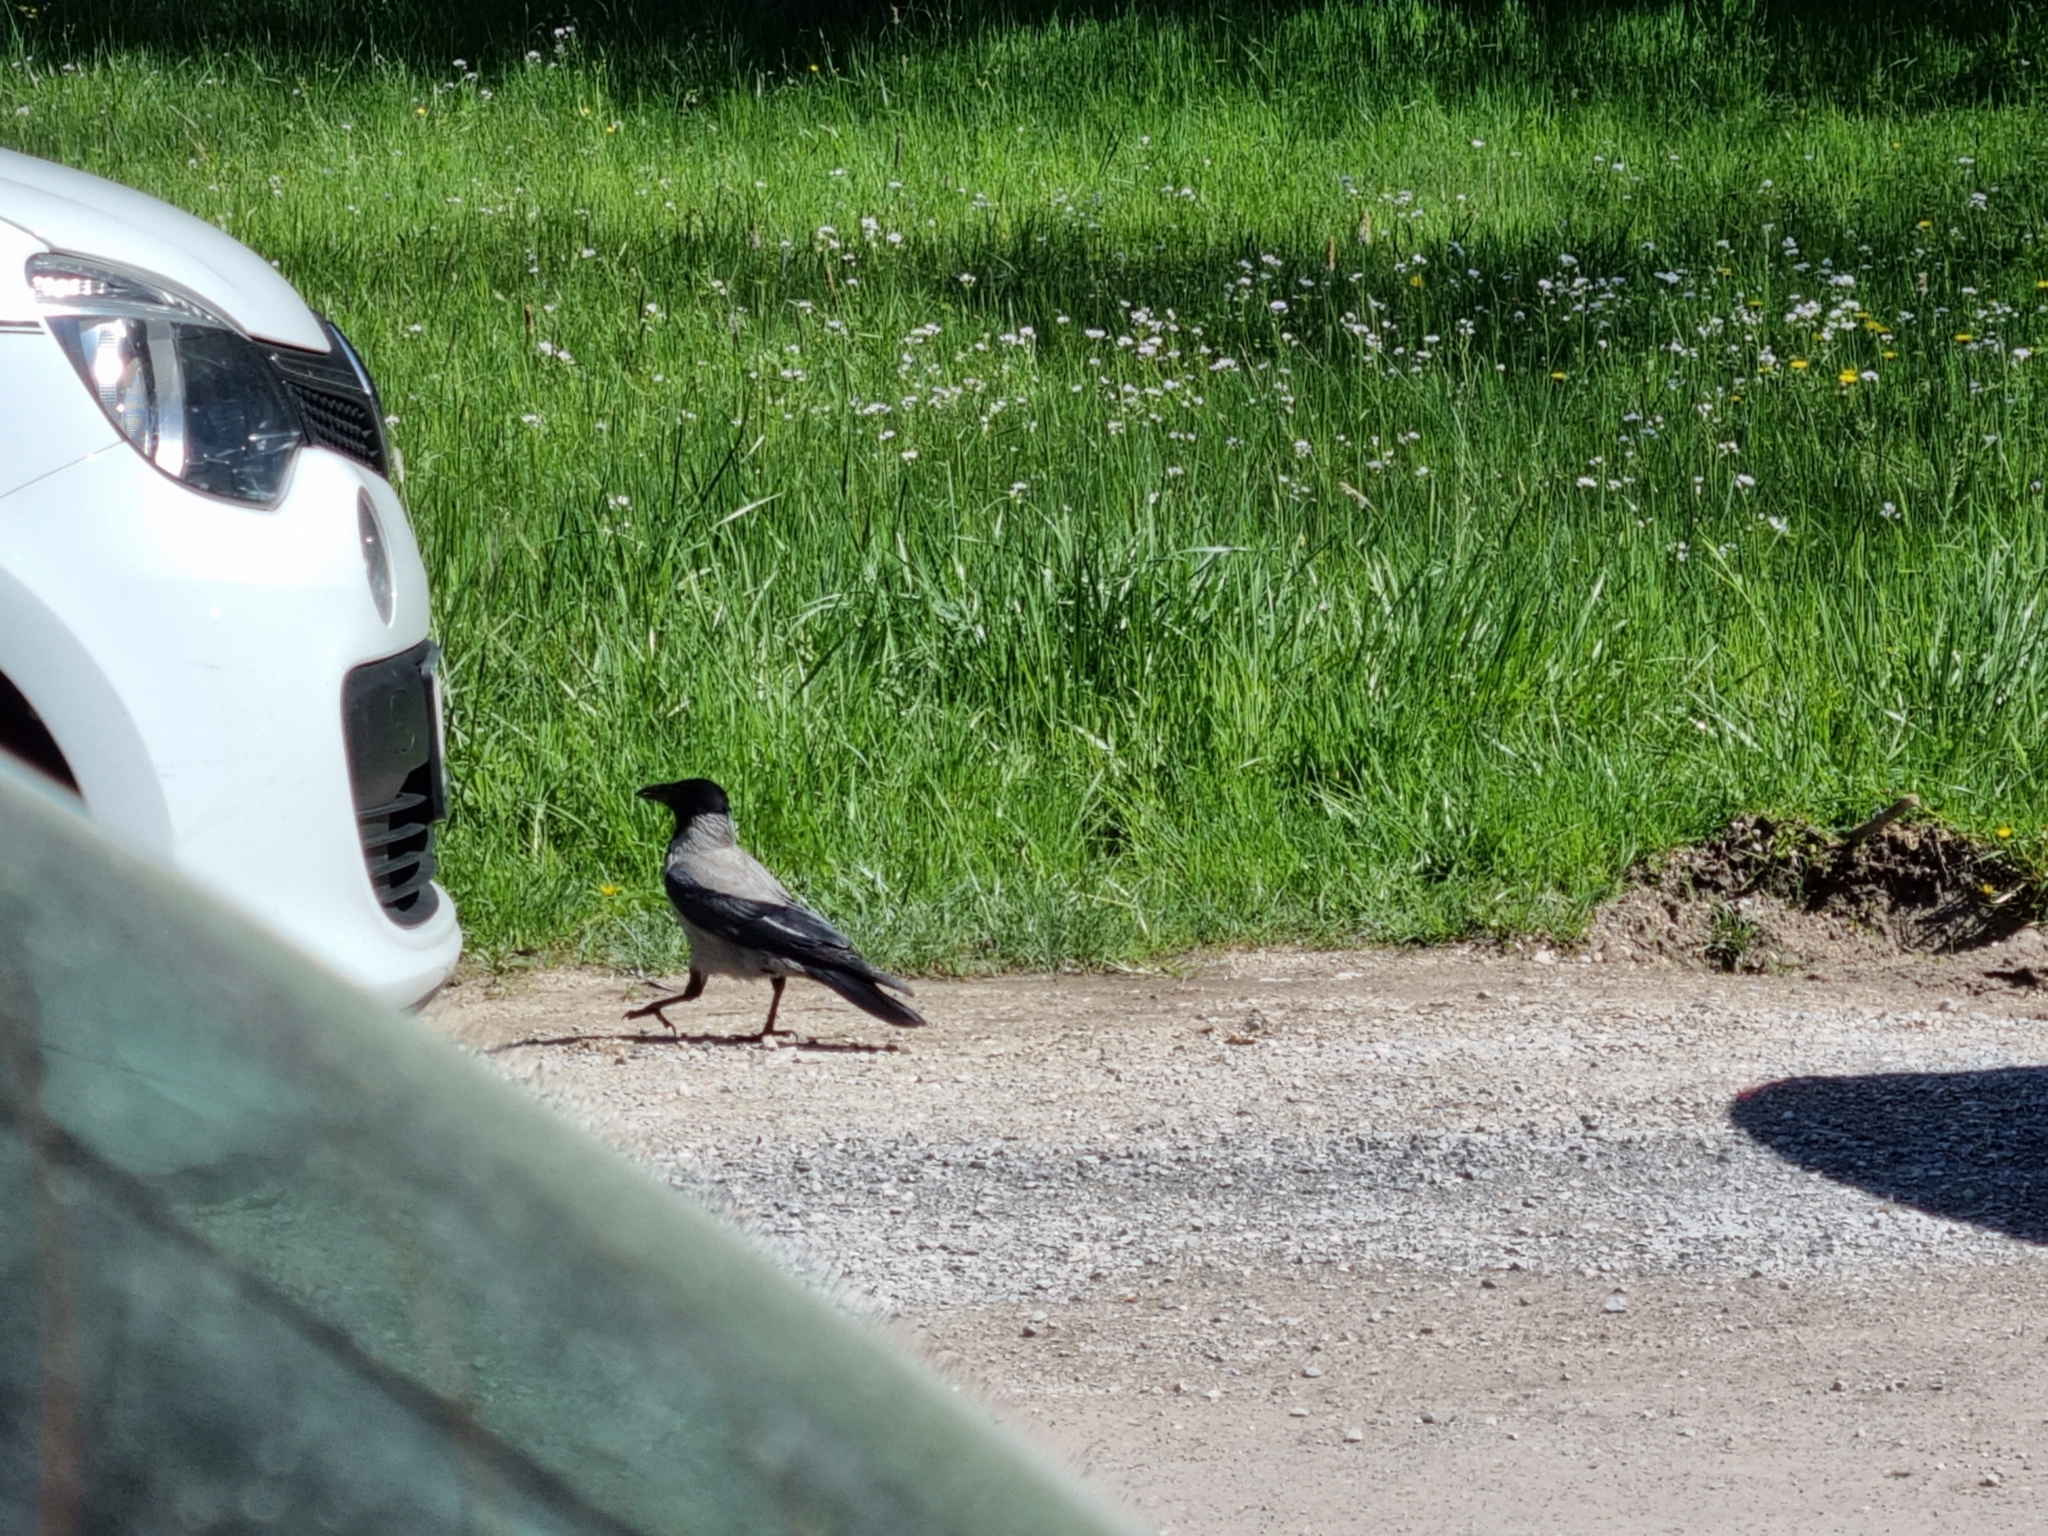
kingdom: Animalia
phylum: Chordata
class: Aves
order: Passeriformes
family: Corvidae
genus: Corvus
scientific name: Corvus cornix
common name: Hooded crow
